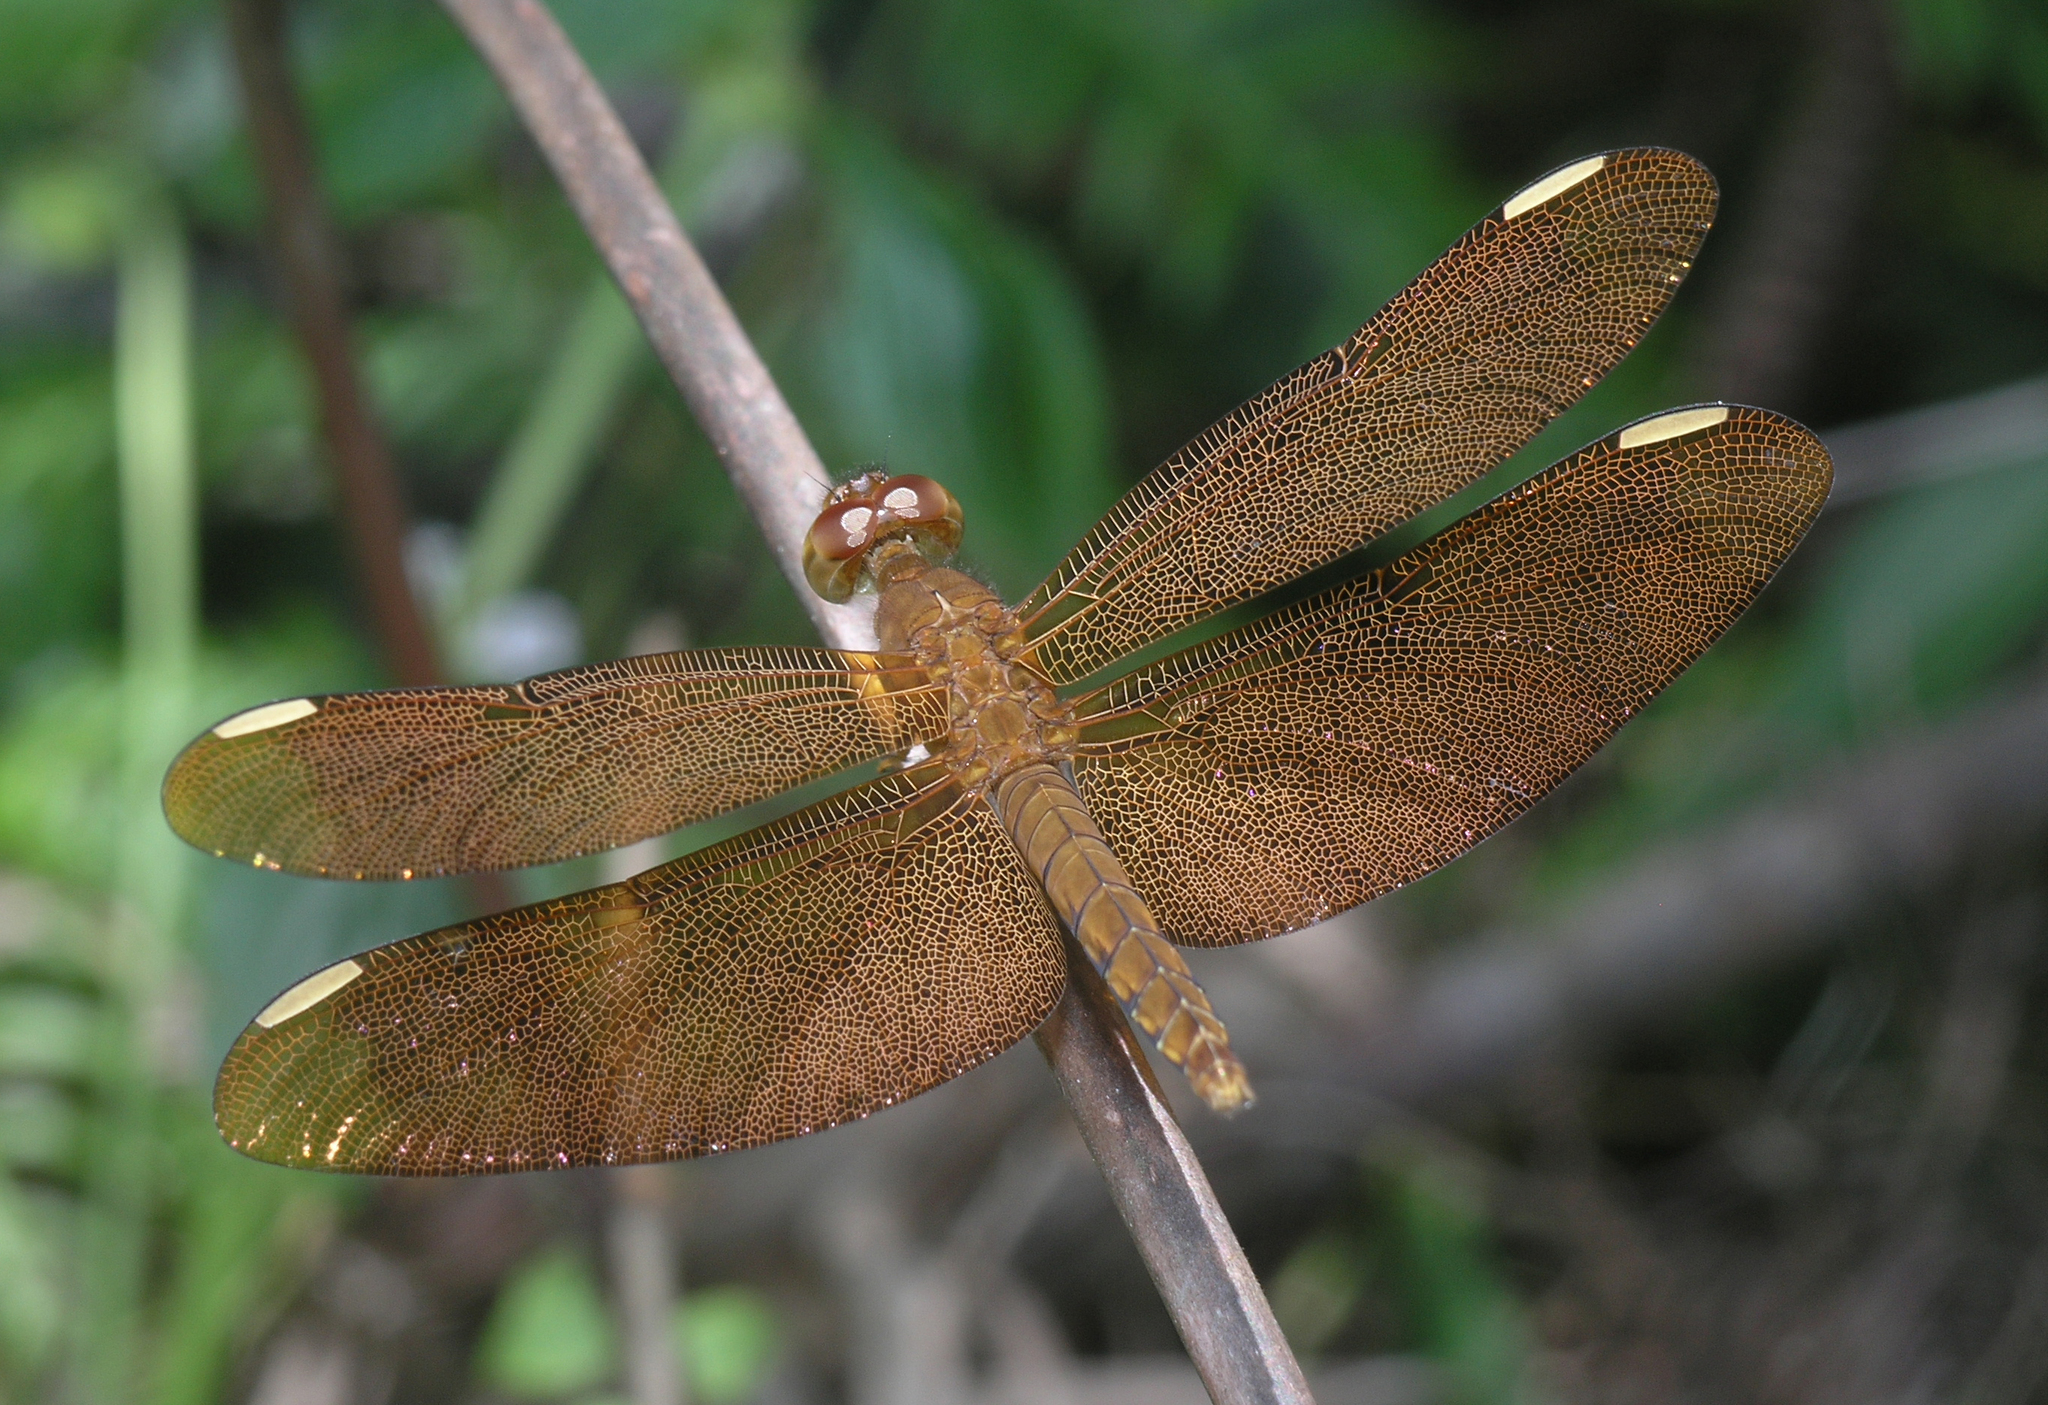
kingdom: Animalia
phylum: Arthropoda
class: Insecta
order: Odonata
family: Libellulidae
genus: Neurothemis
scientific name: Neurothemis fulvia
